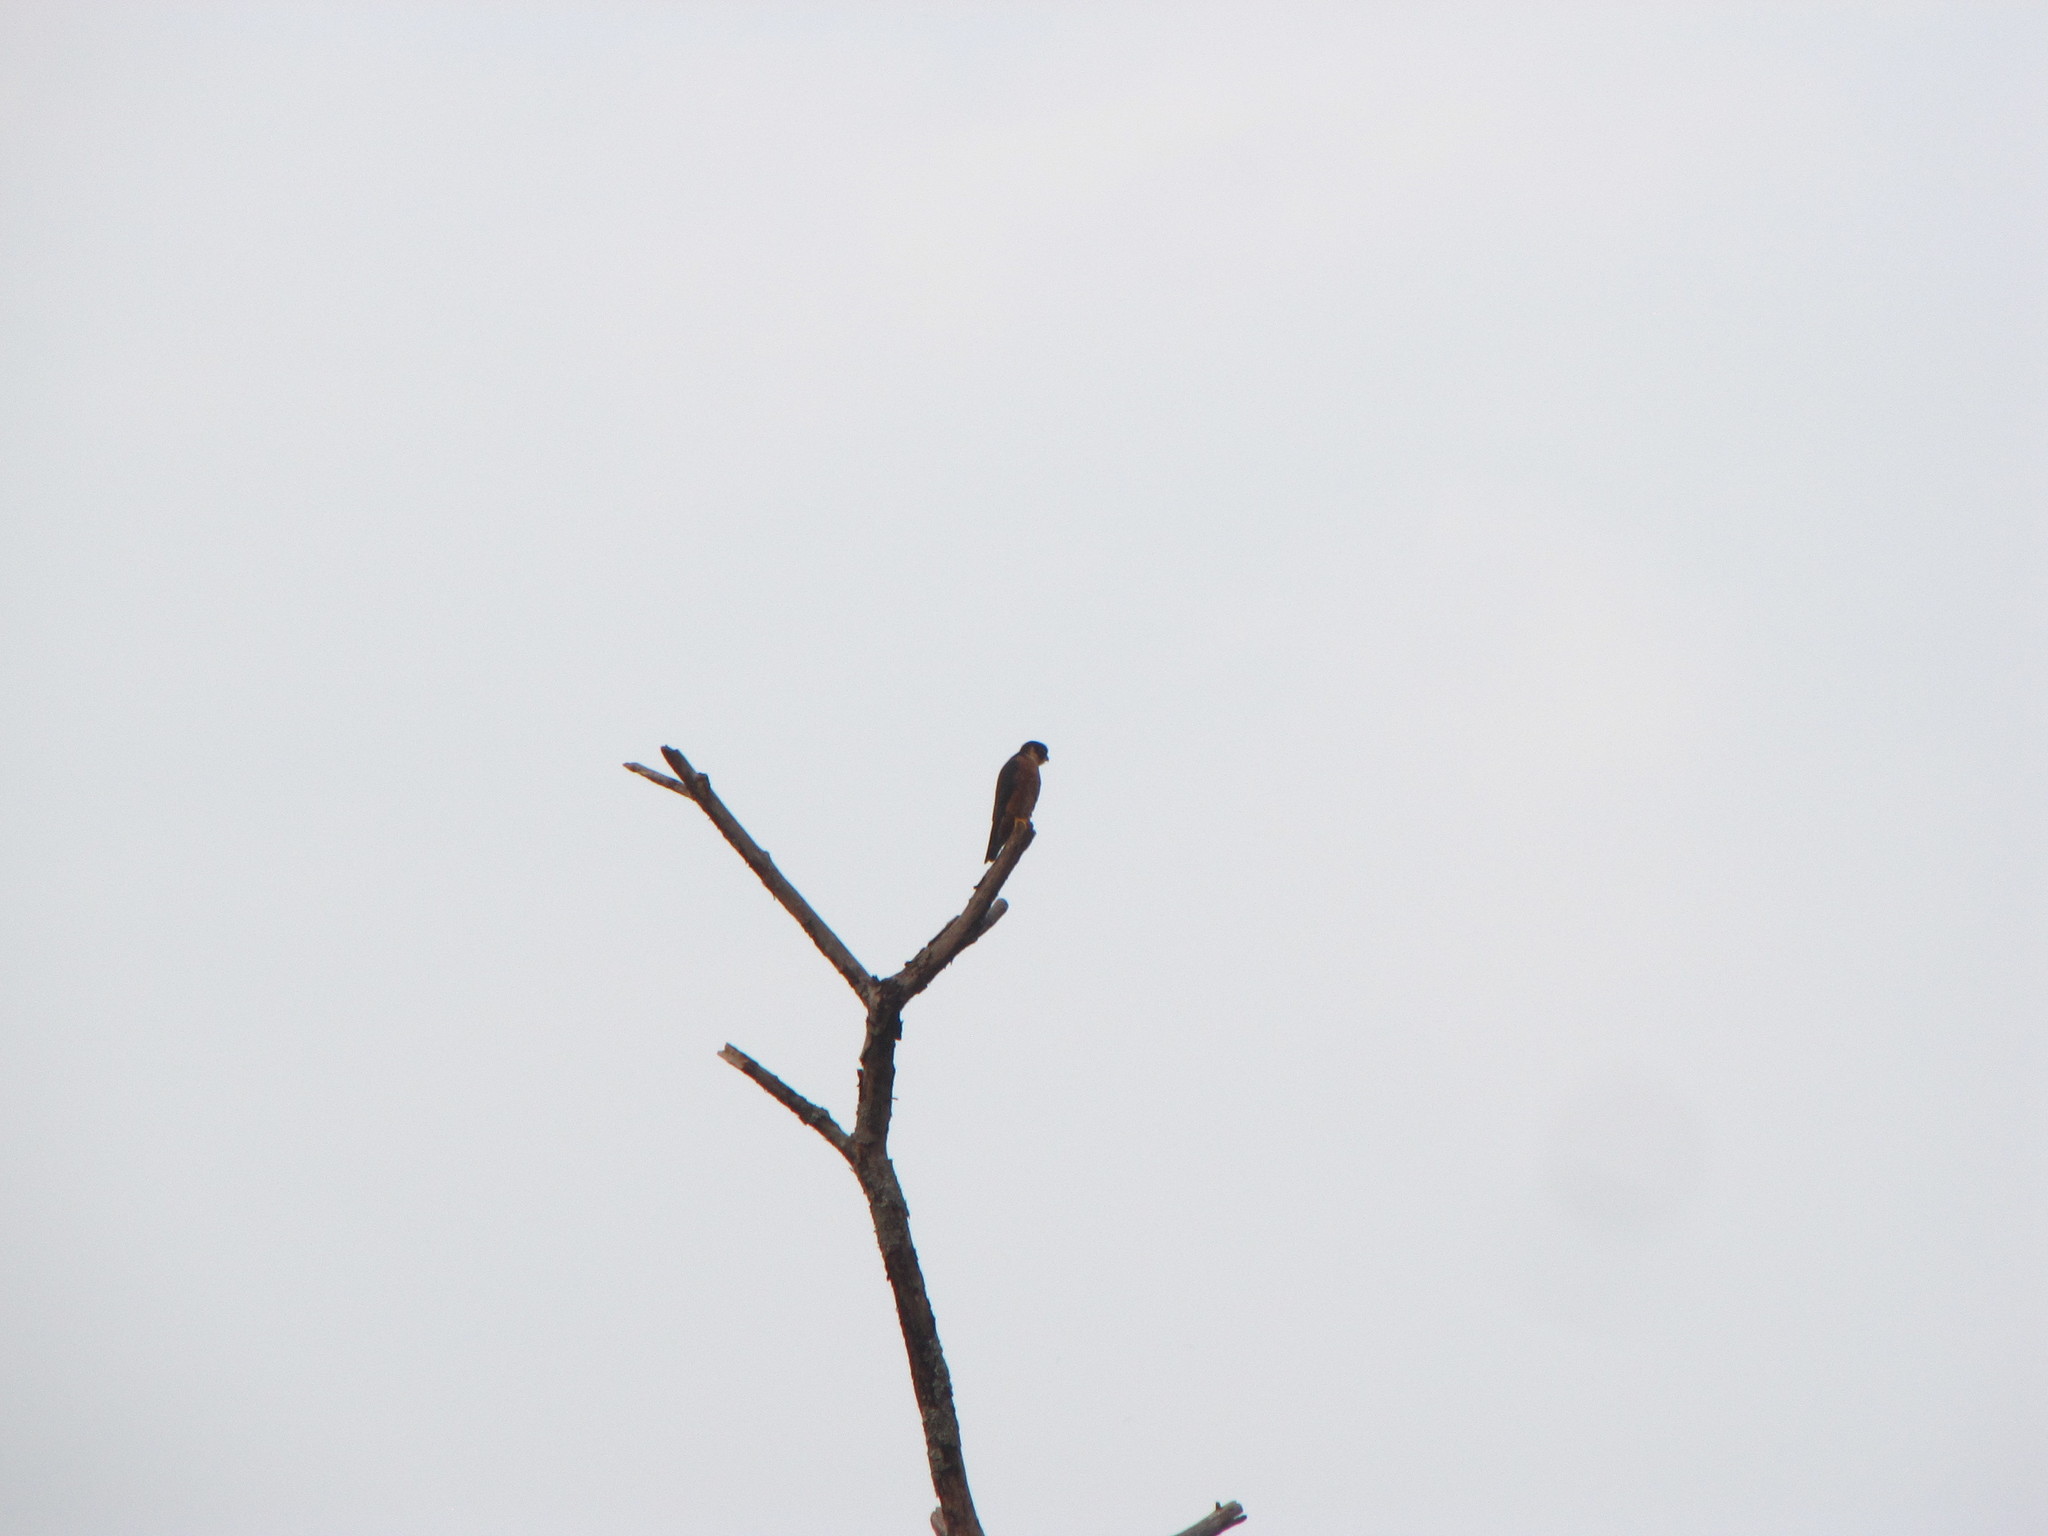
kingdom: Animalia
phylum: Chordata
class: Aves
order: Falconiformes
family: Falconidae
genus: Falco
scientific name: Falco severus
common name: Oriental hobby
